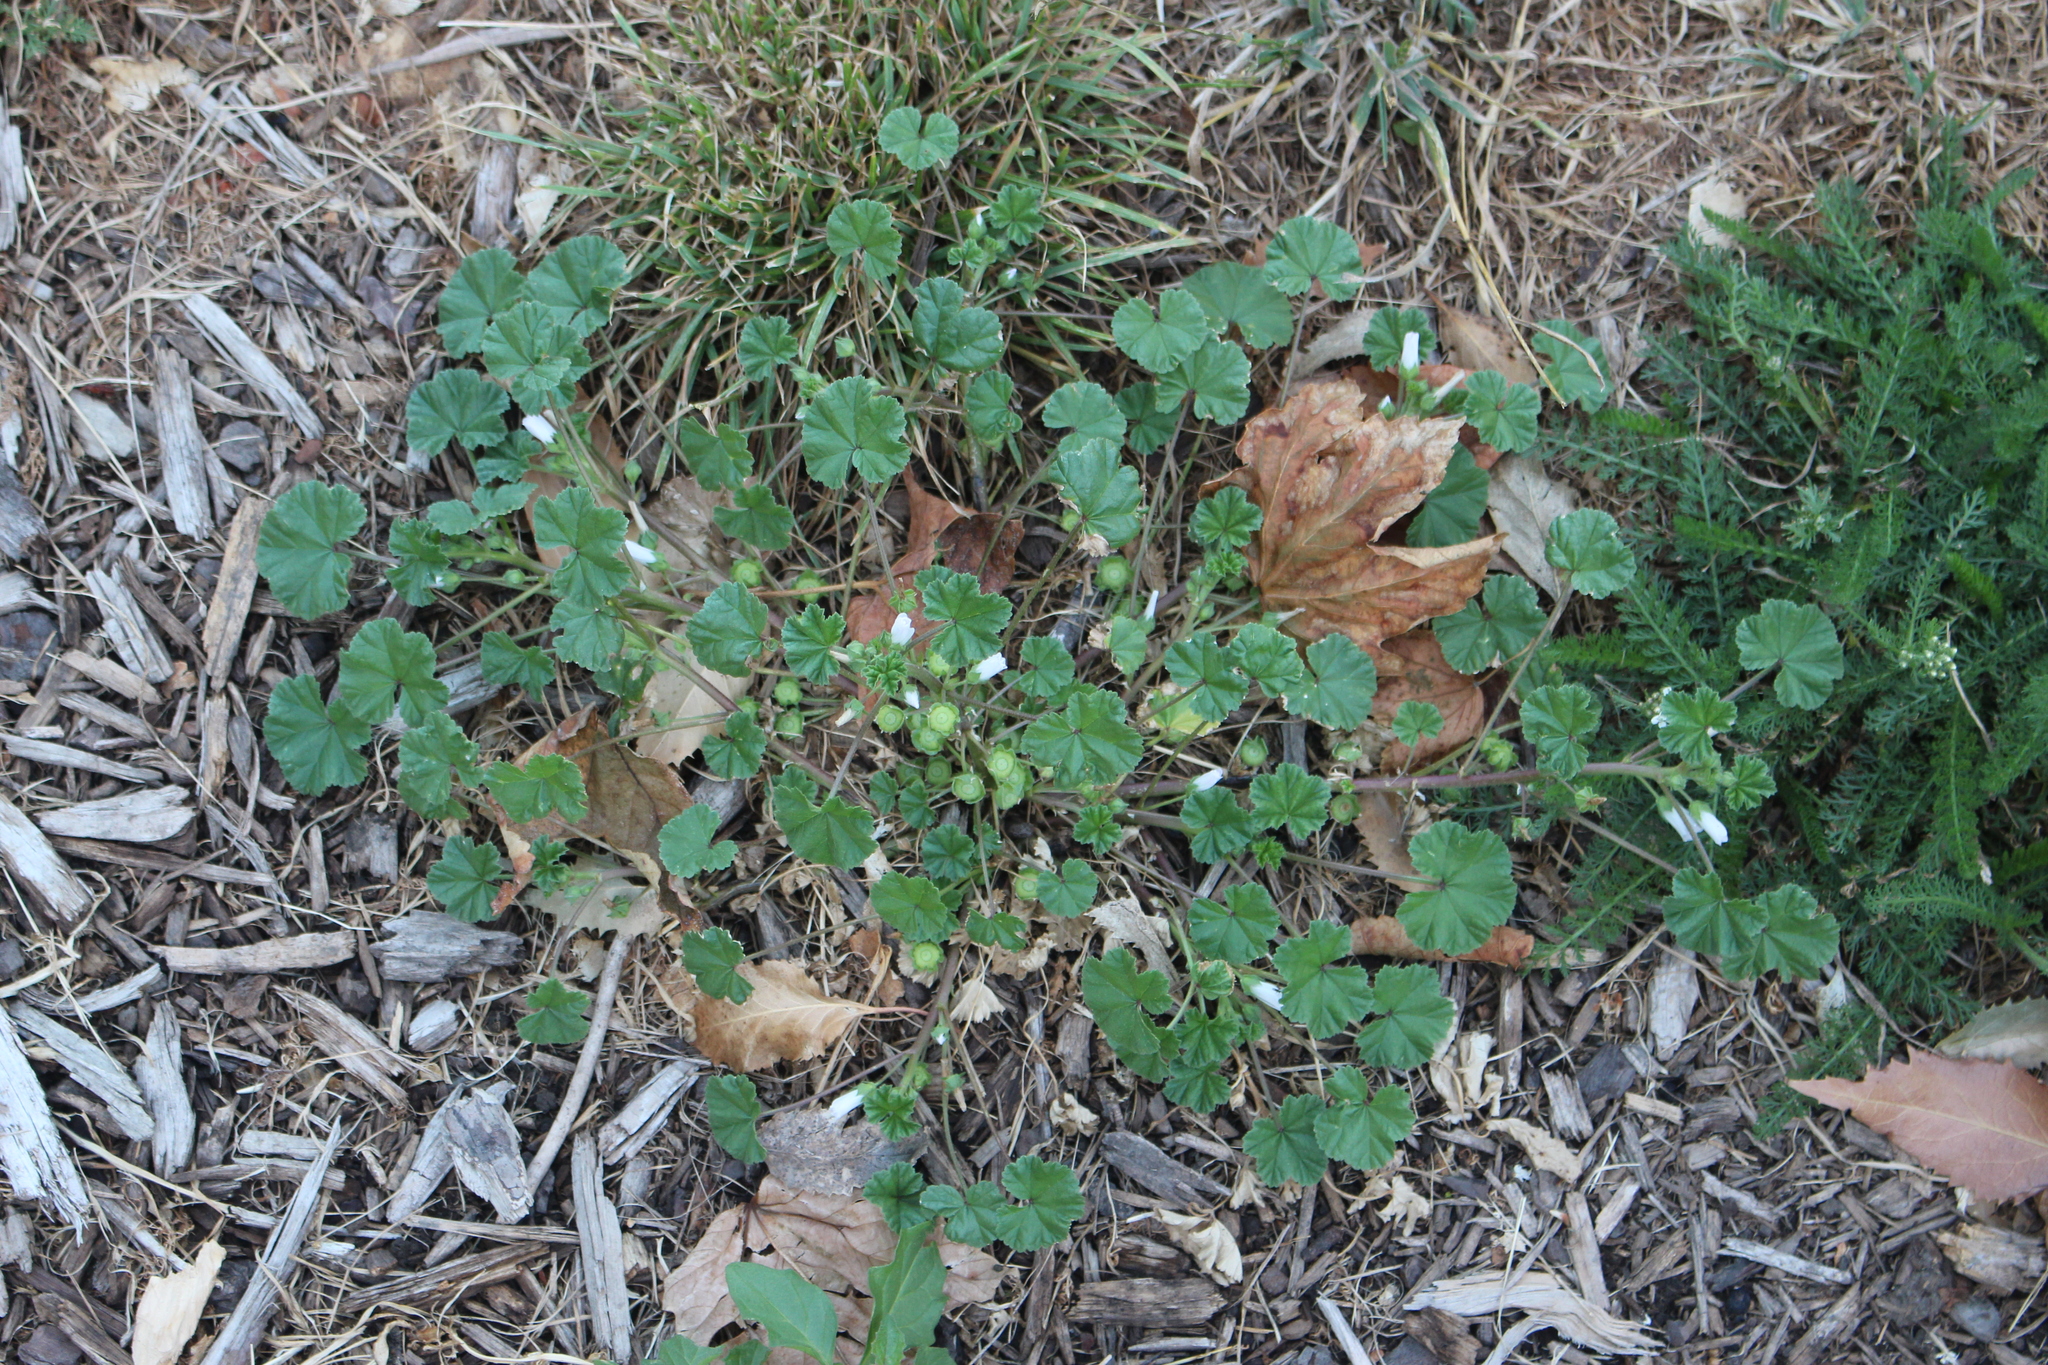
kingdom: Plantae
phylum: Tracheophyta
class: Magnoliopsida
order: Malvales
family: Malvaceae
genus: Malva
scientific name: Malva neglecta
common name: Common mallow
